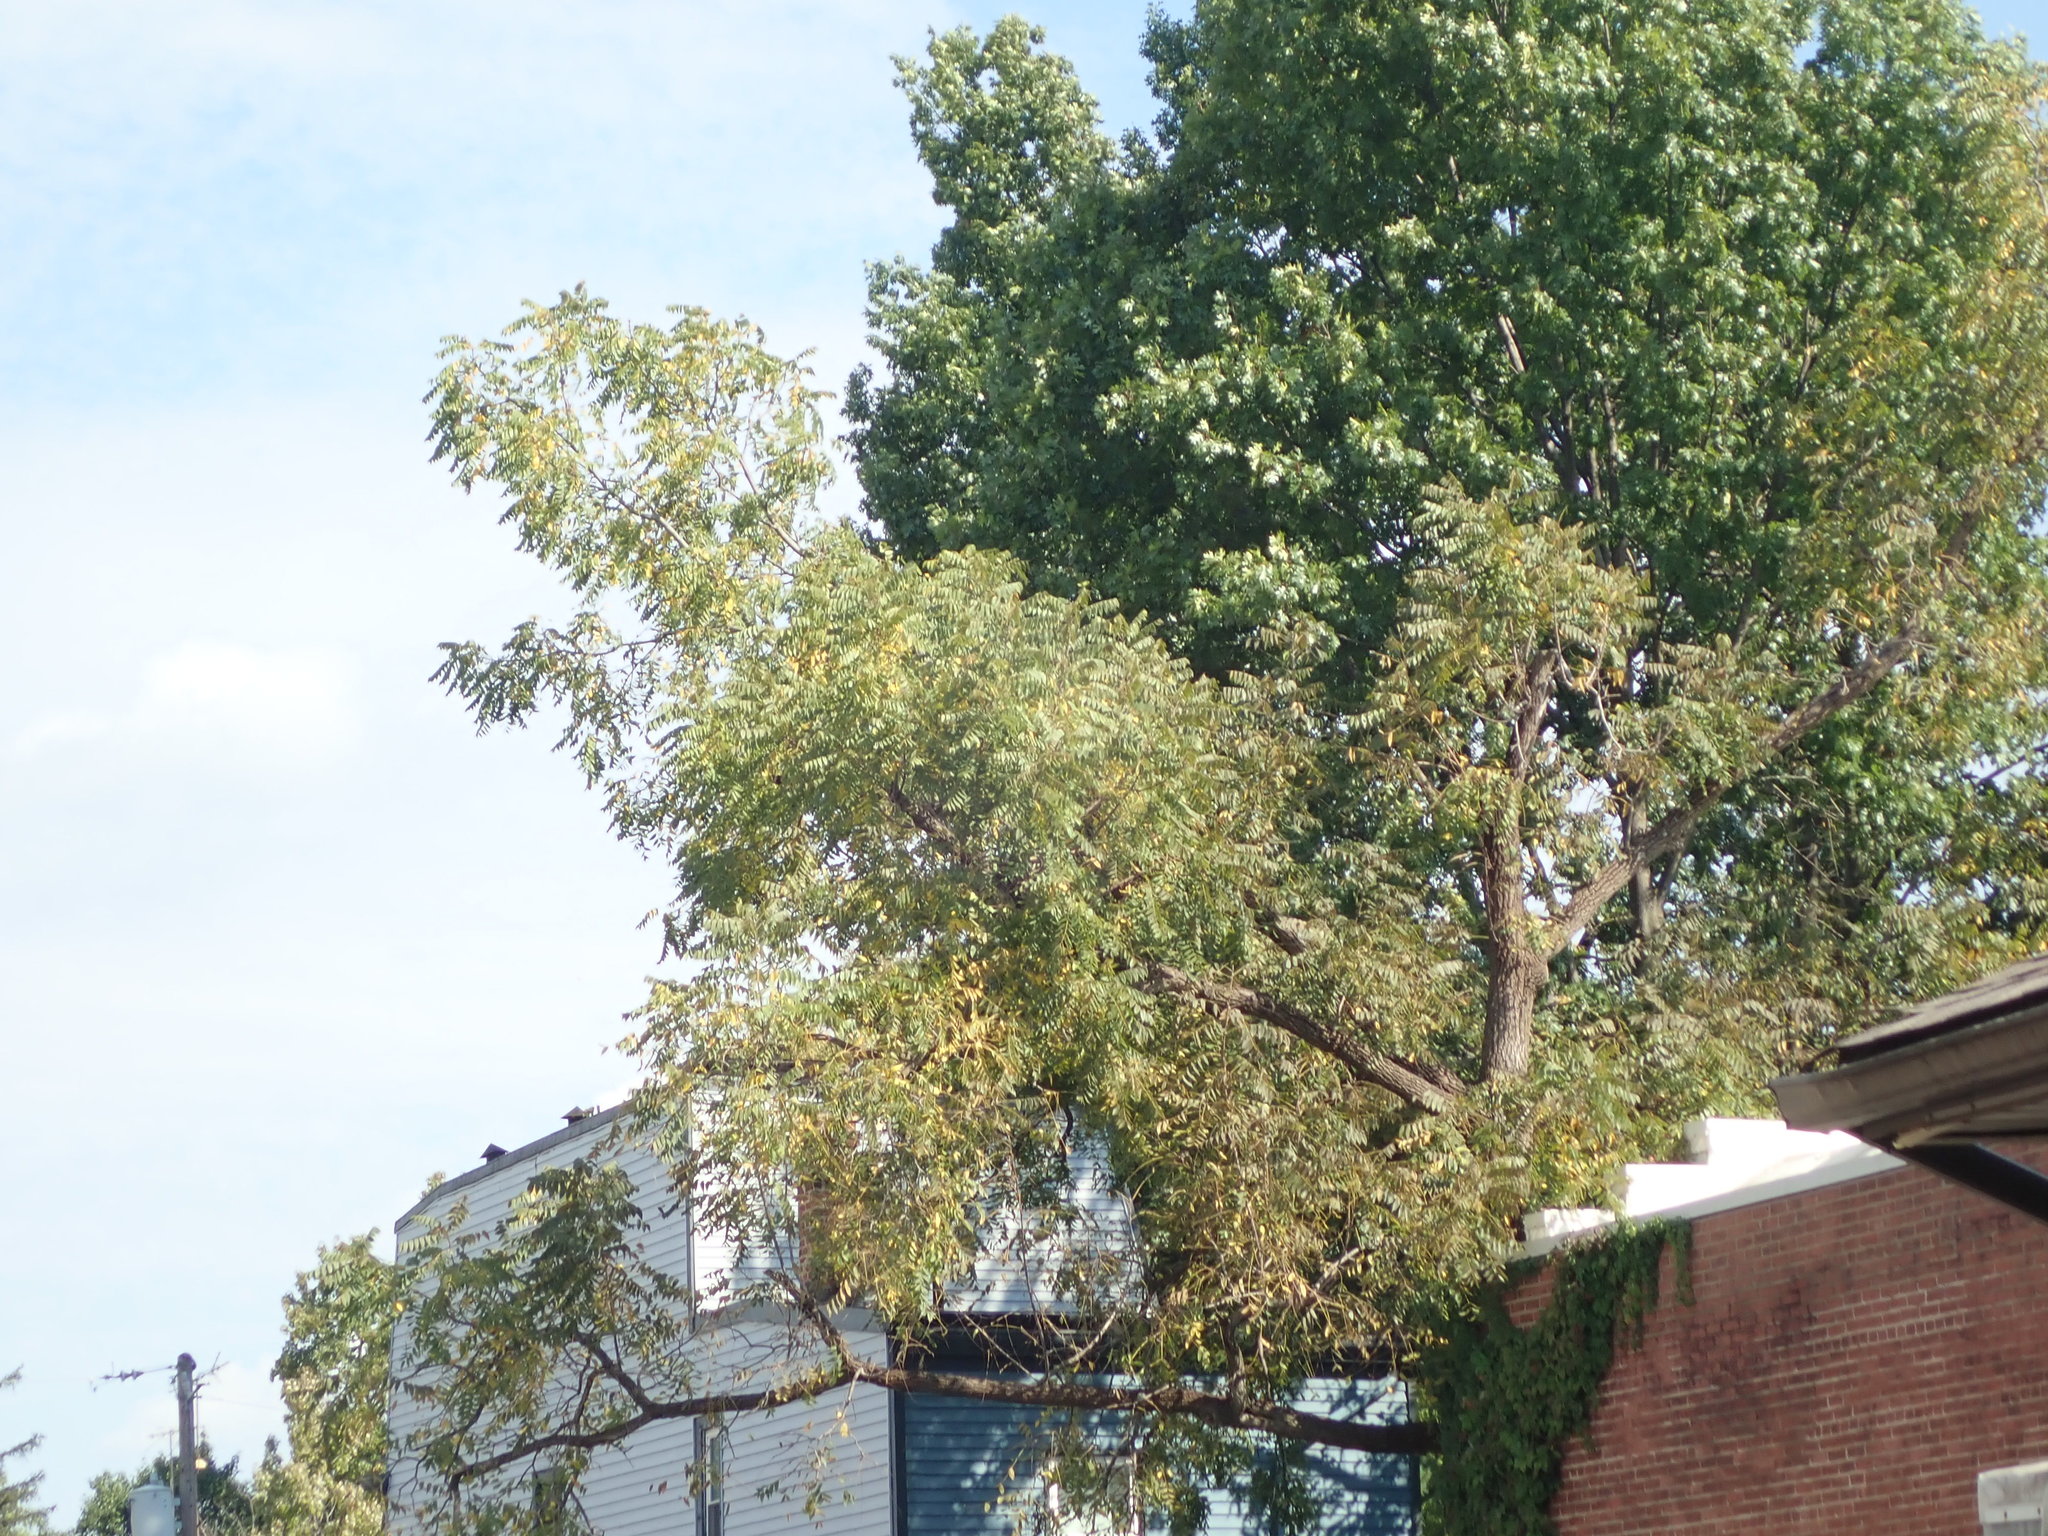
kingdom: Plantae
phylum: Tracheophyta
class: Magnoliopsida
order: Fagales
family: Juglandaceae
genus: Juglans
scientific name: Juglans nigra
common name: Black walnut
